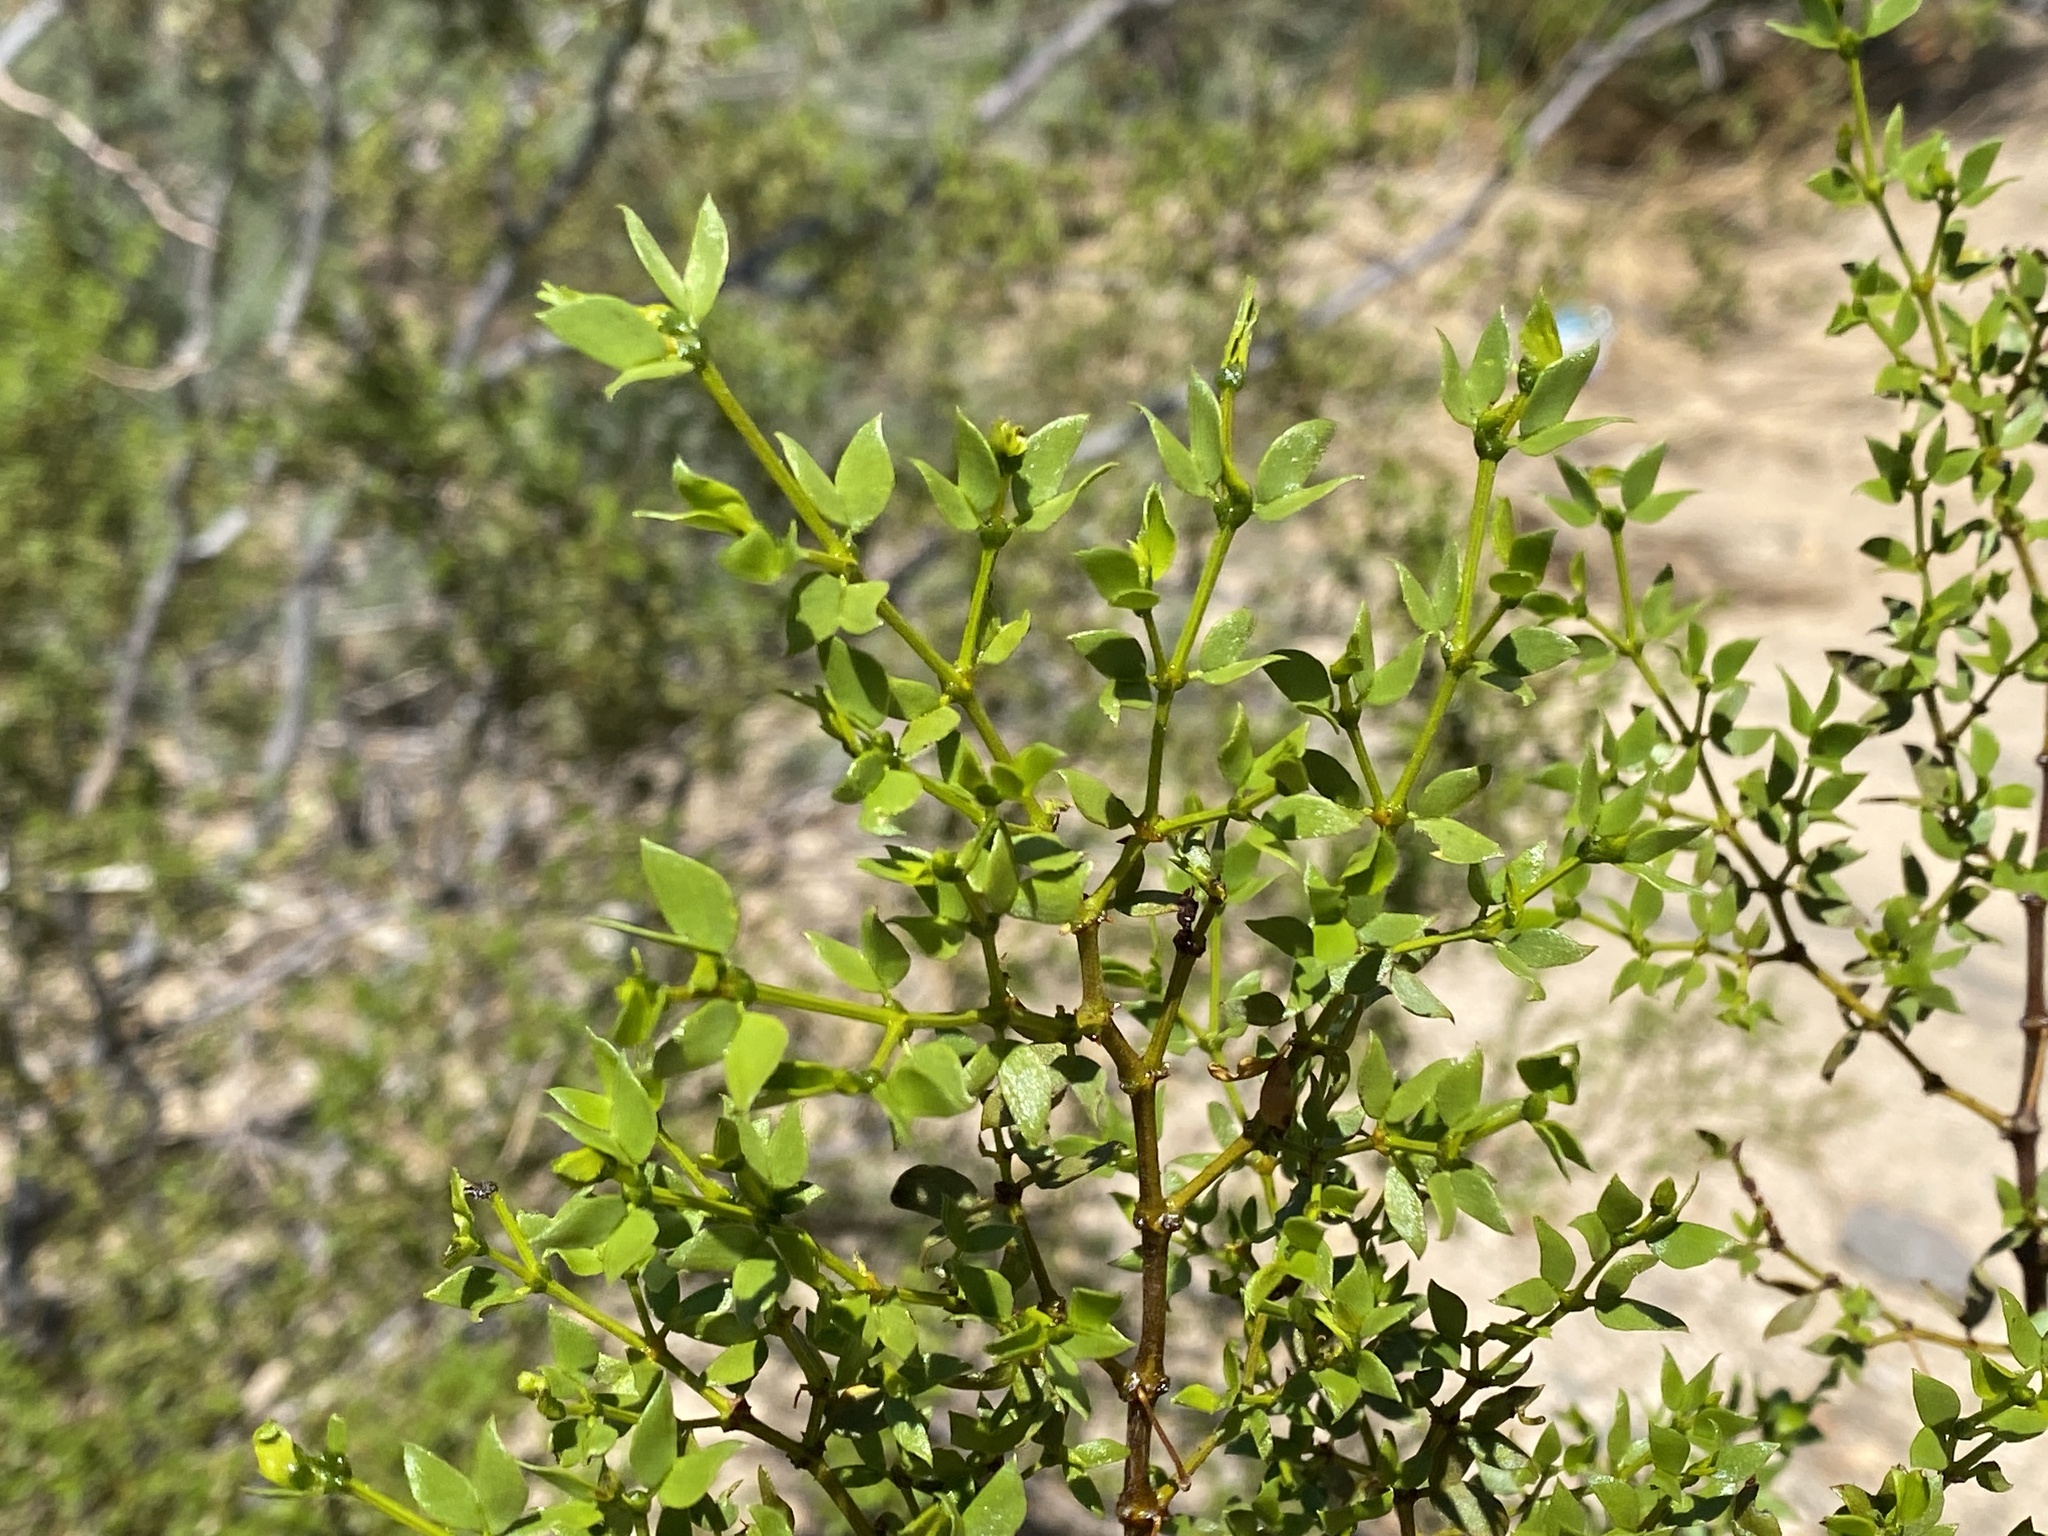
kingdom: Plantae
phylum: Tracheophyta
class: Magnoliopsida
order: Zygophyllales
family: Zygophyllaceae
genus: Larrea
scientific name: Larrea tridentata
